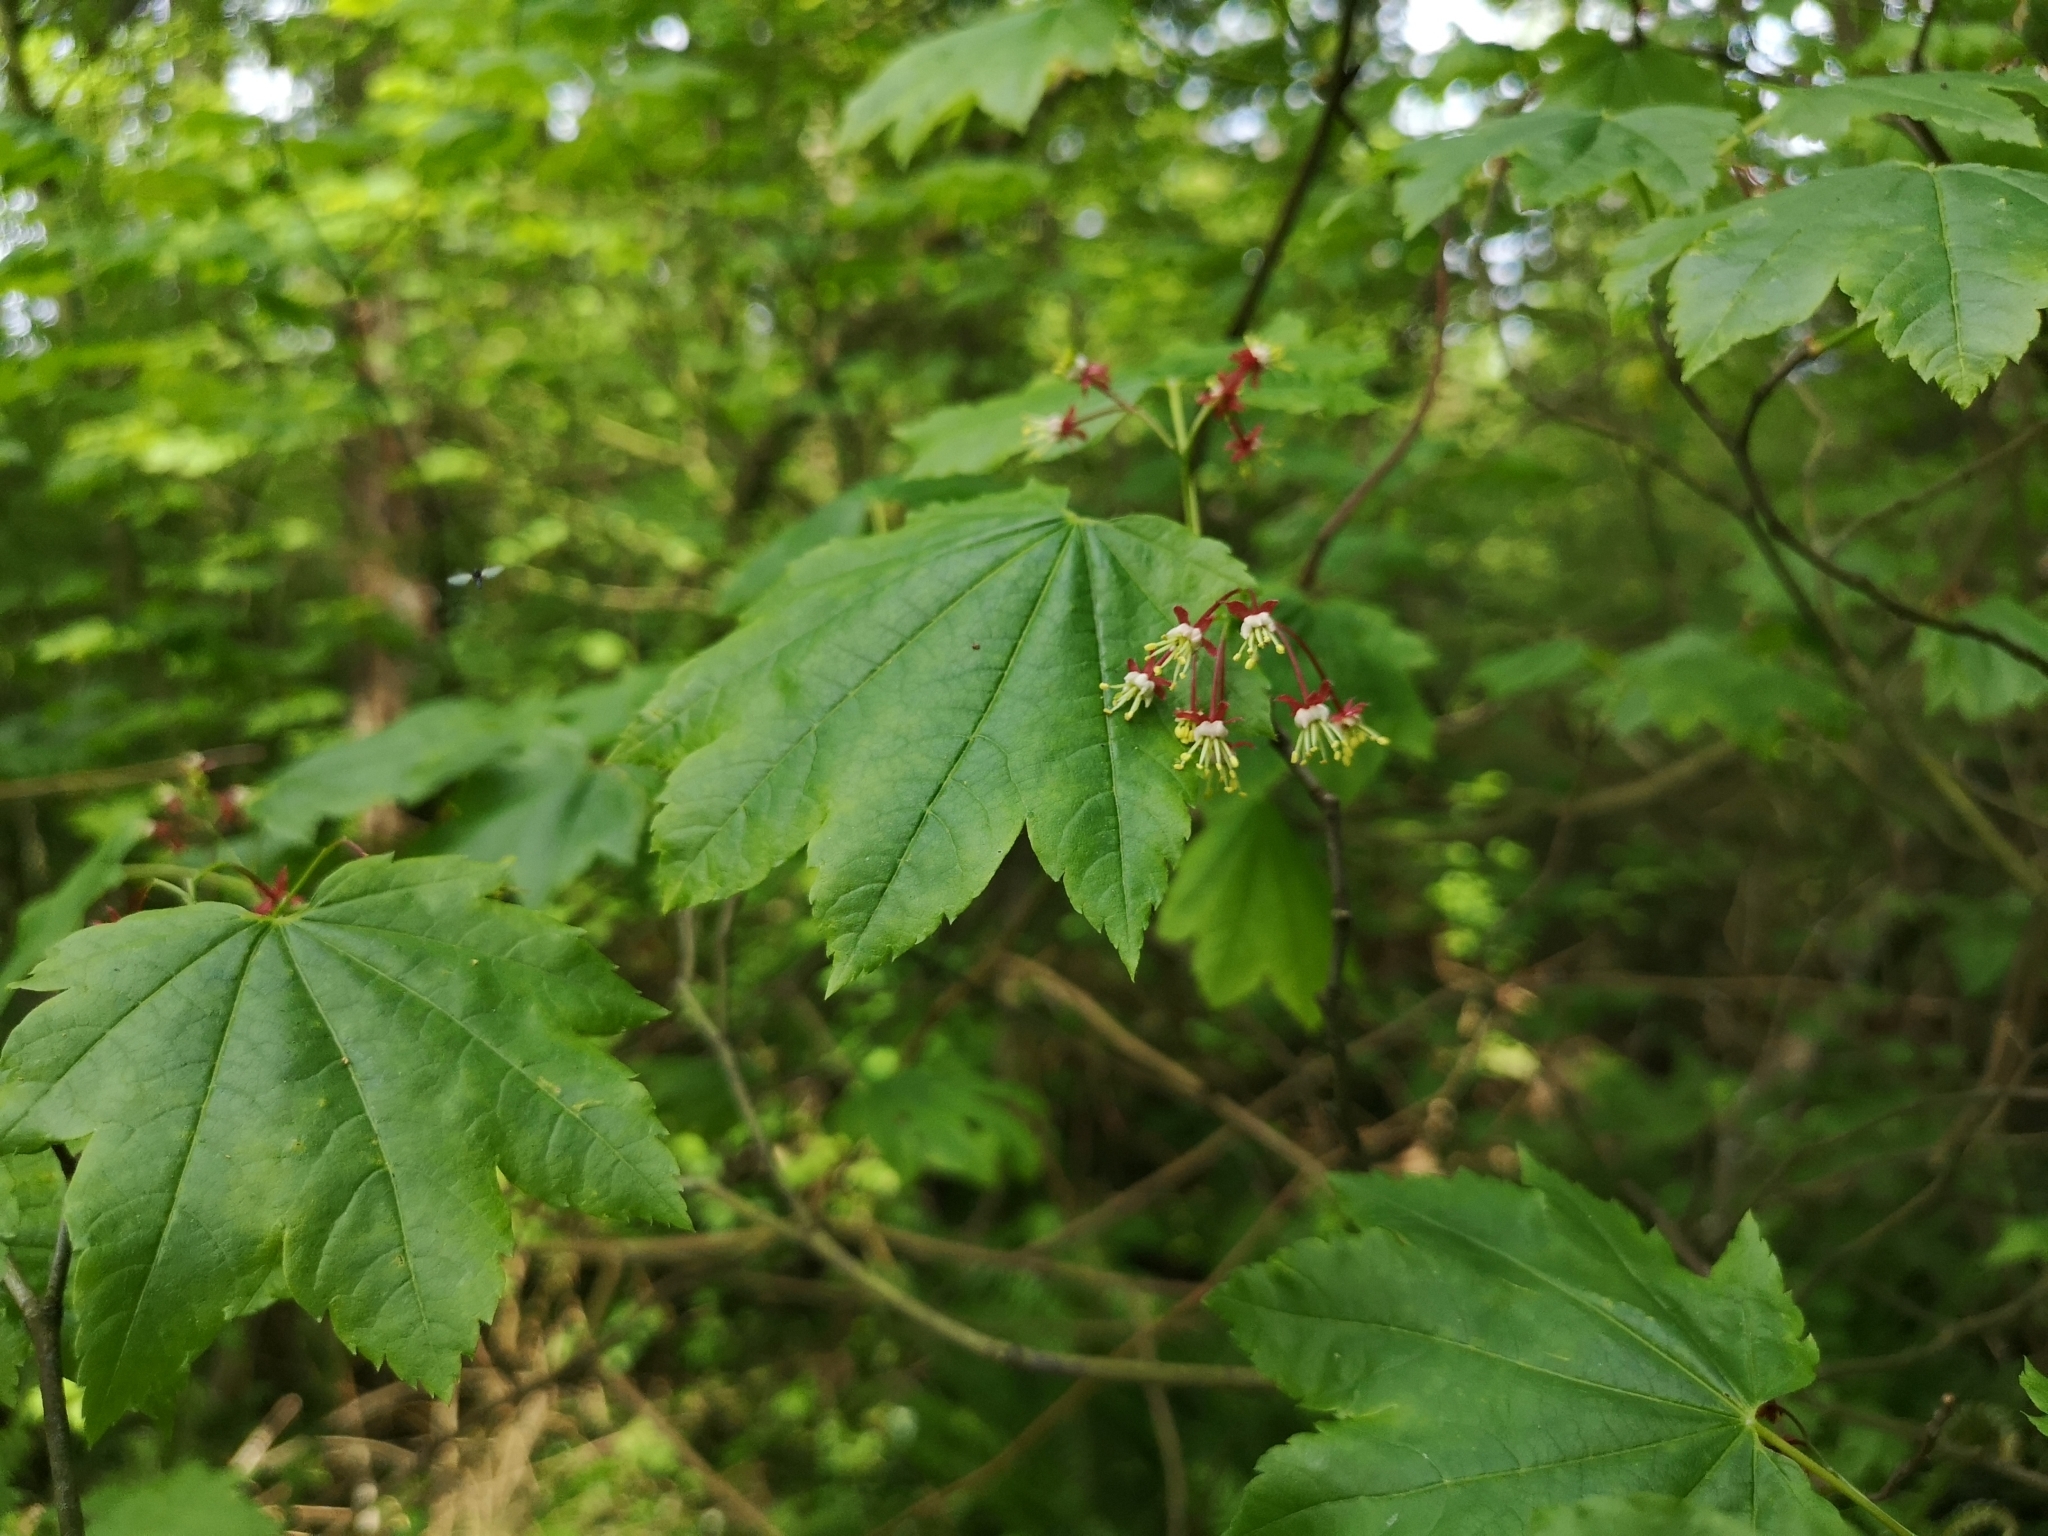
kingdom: Plantae
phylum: Tracheophyta
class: Magnoliopsida
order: Sapindales
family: Sapindaceae
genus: Acer
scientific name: Acer circinatum
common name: Vine maple
